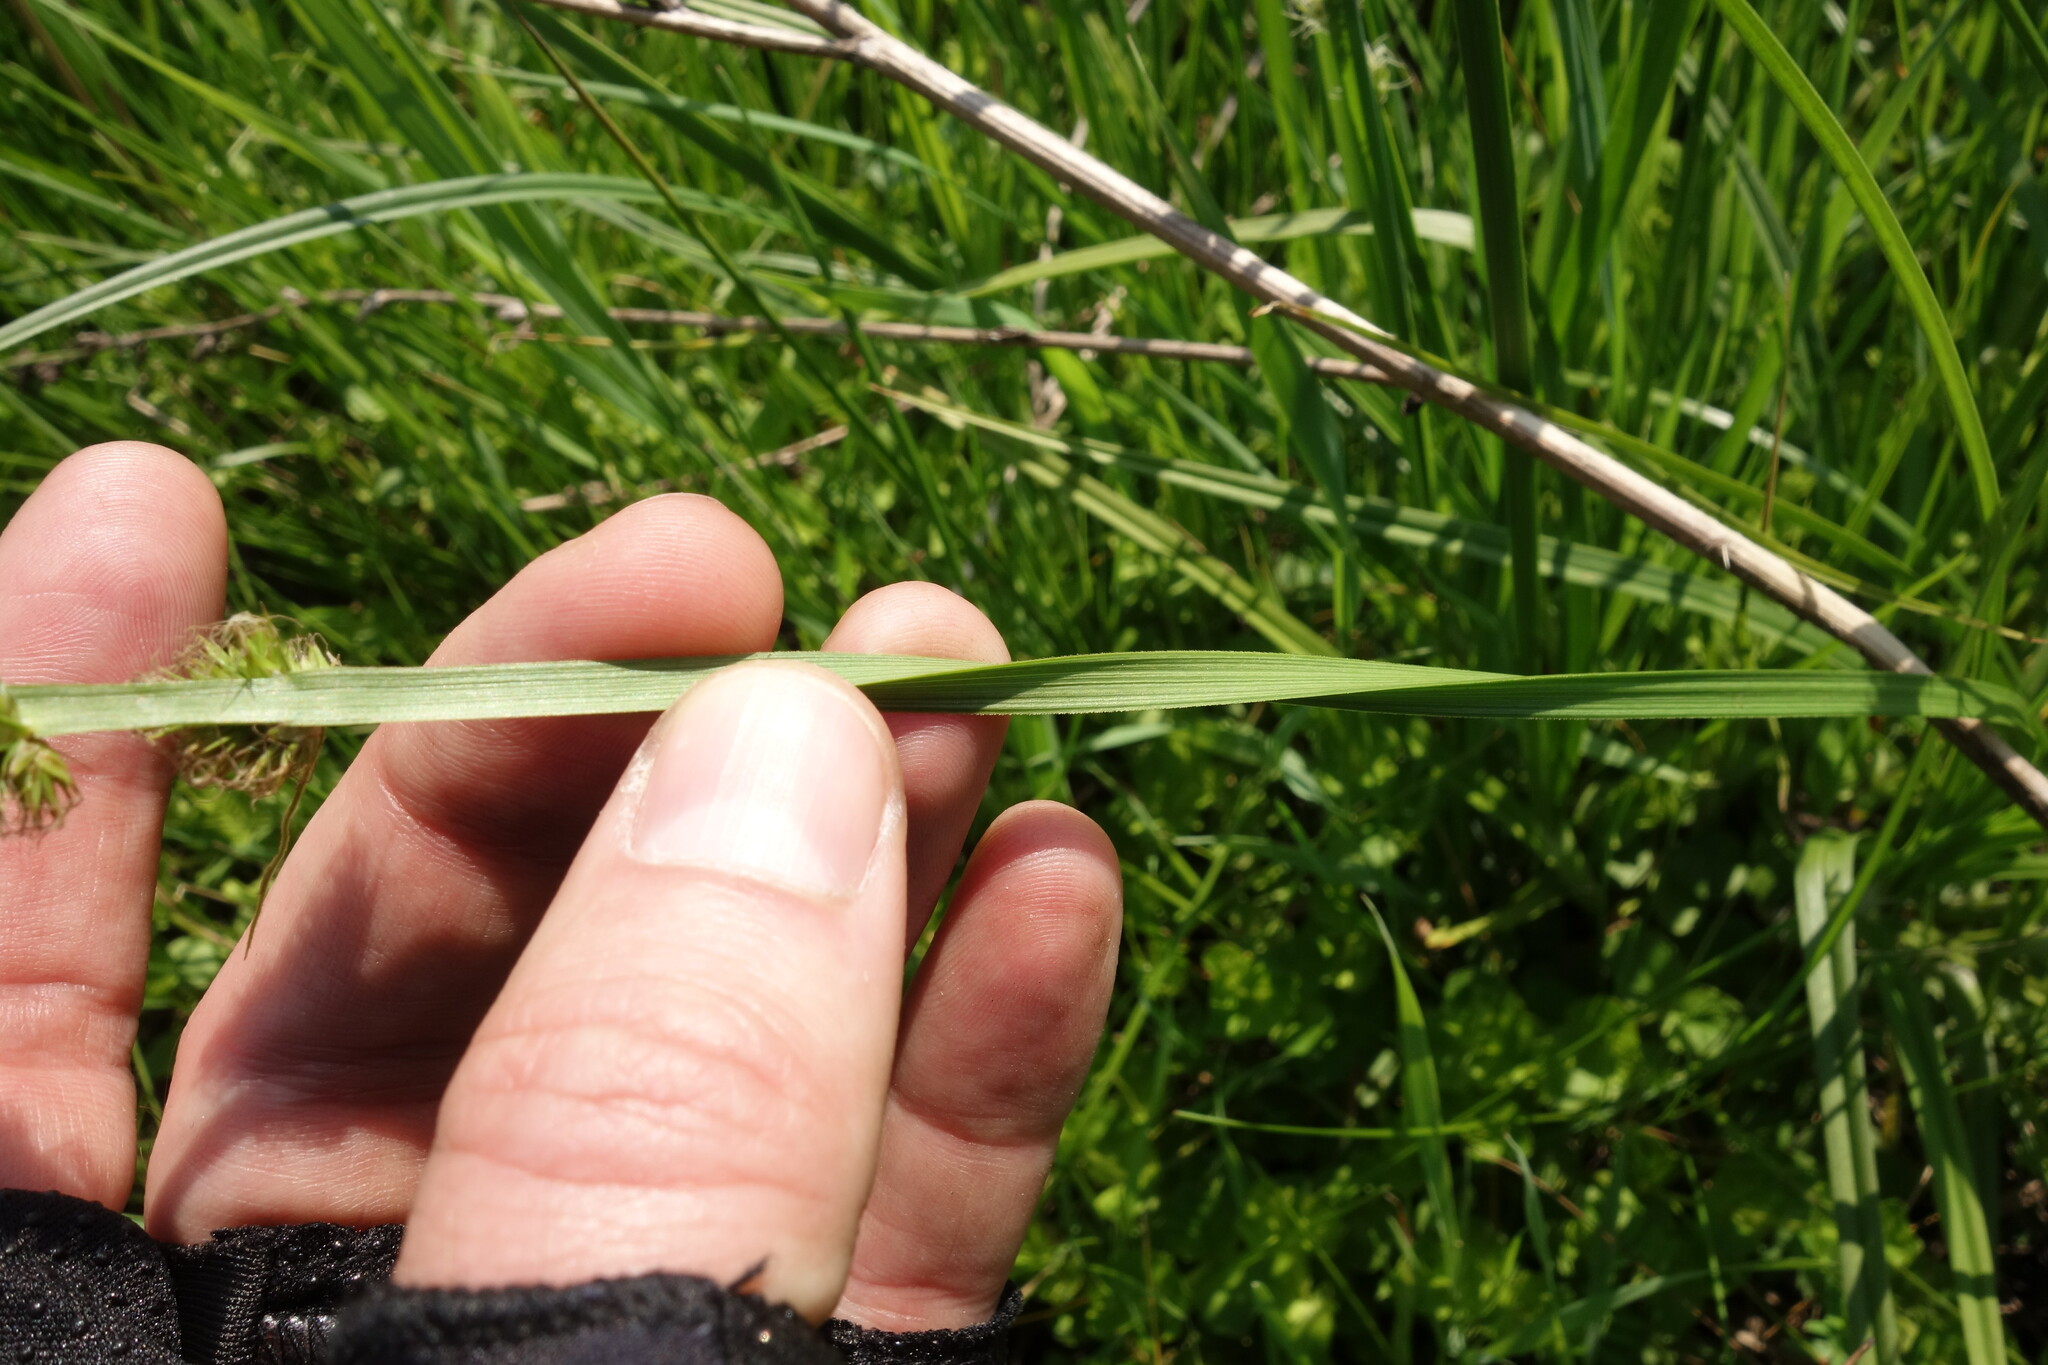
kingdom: Plantae
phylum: Tracheophyta
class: Liliopsida
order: Poales
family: Cyperaceae
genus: Carex
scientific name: Carex vulpina
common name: True fox-sedge
